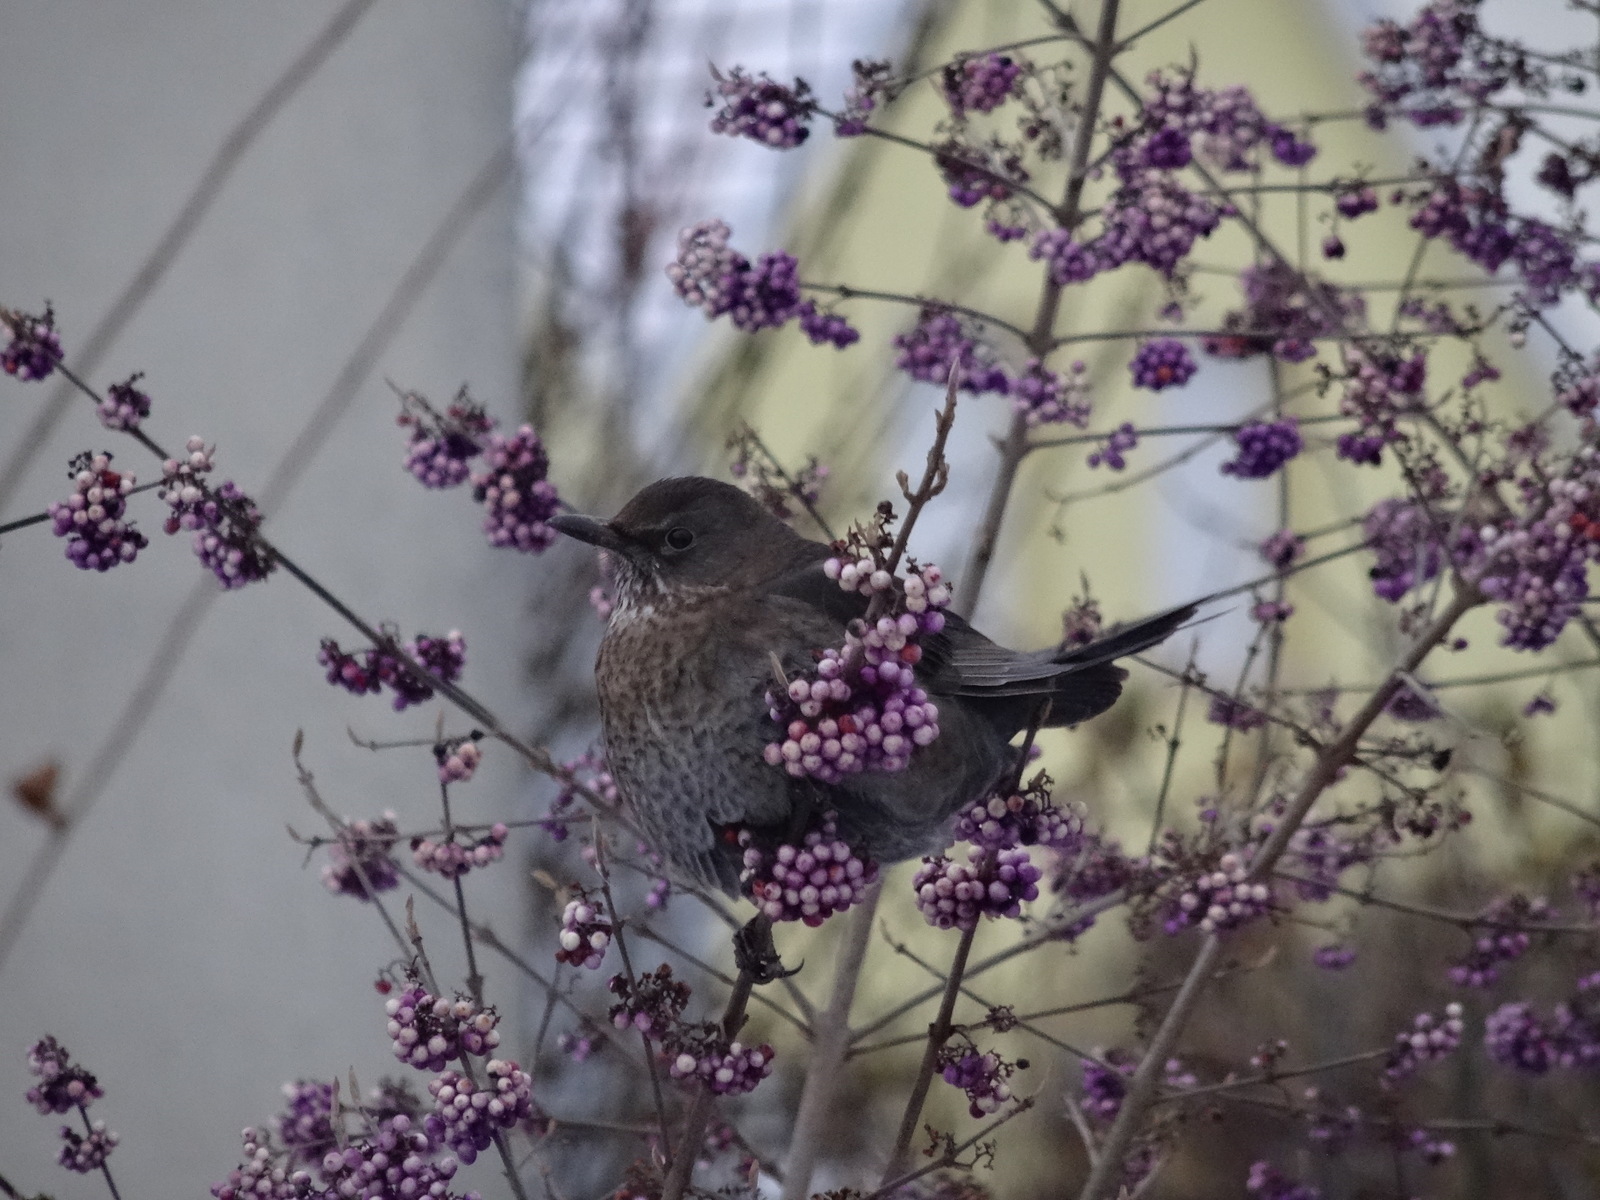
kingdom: Animalia
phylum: Chordata
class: Aves
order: Passeriformes
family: Turdidae
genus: Turdus
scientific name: Turdus merula
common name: Common blackbird
